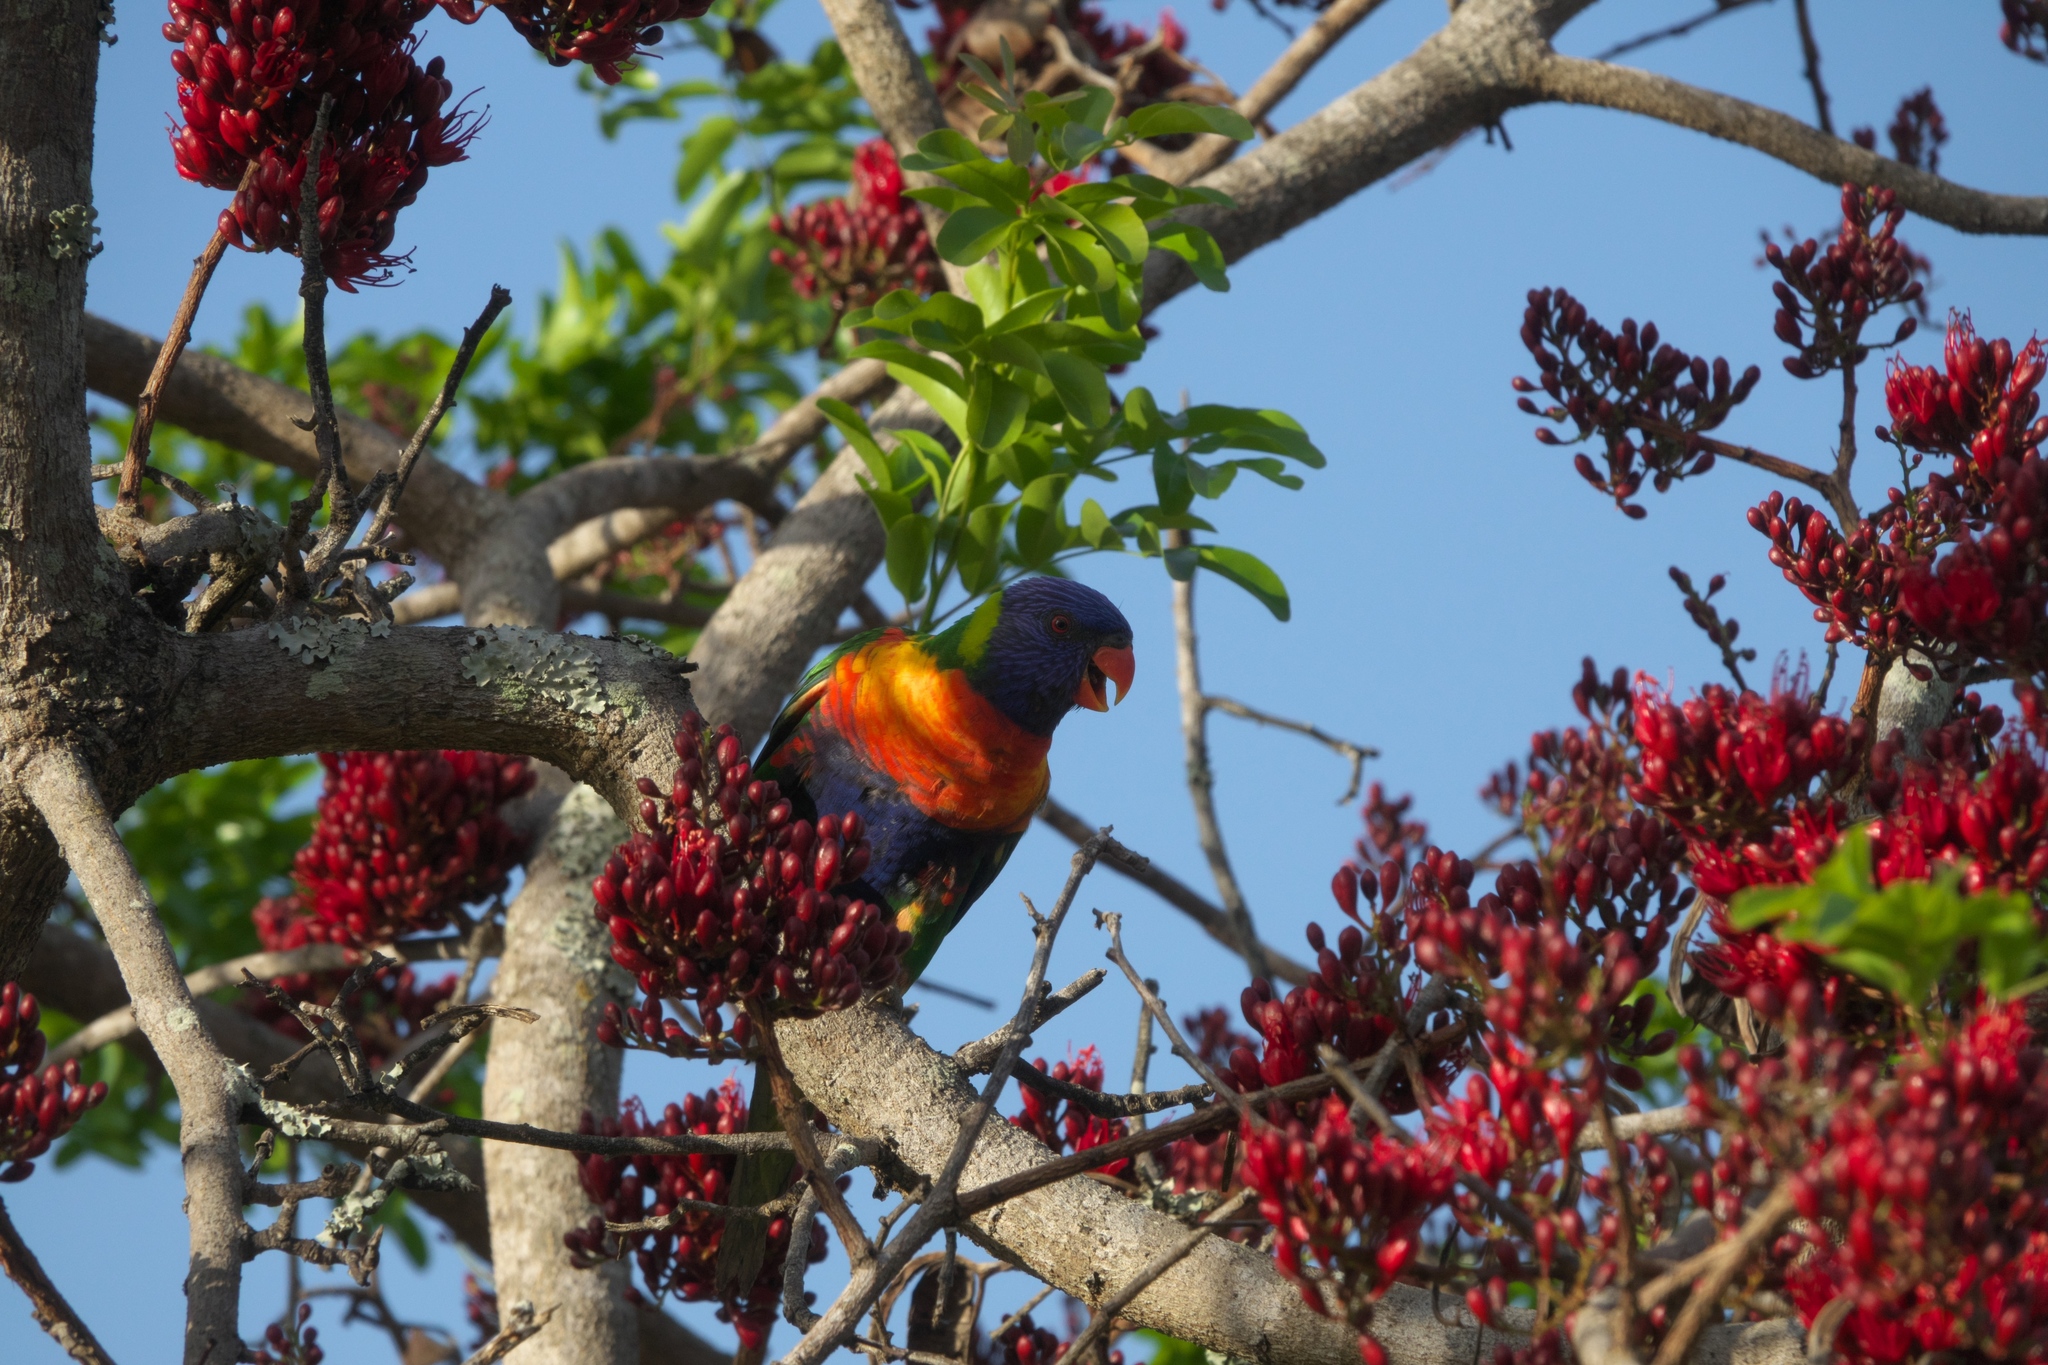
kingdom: Plantae
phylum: Tracheophyta
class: Magnoliopsida
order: Fabales
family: Fabaceae
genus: Schotia
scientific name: Schotia brachypetala
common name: Weeping boer-bean
